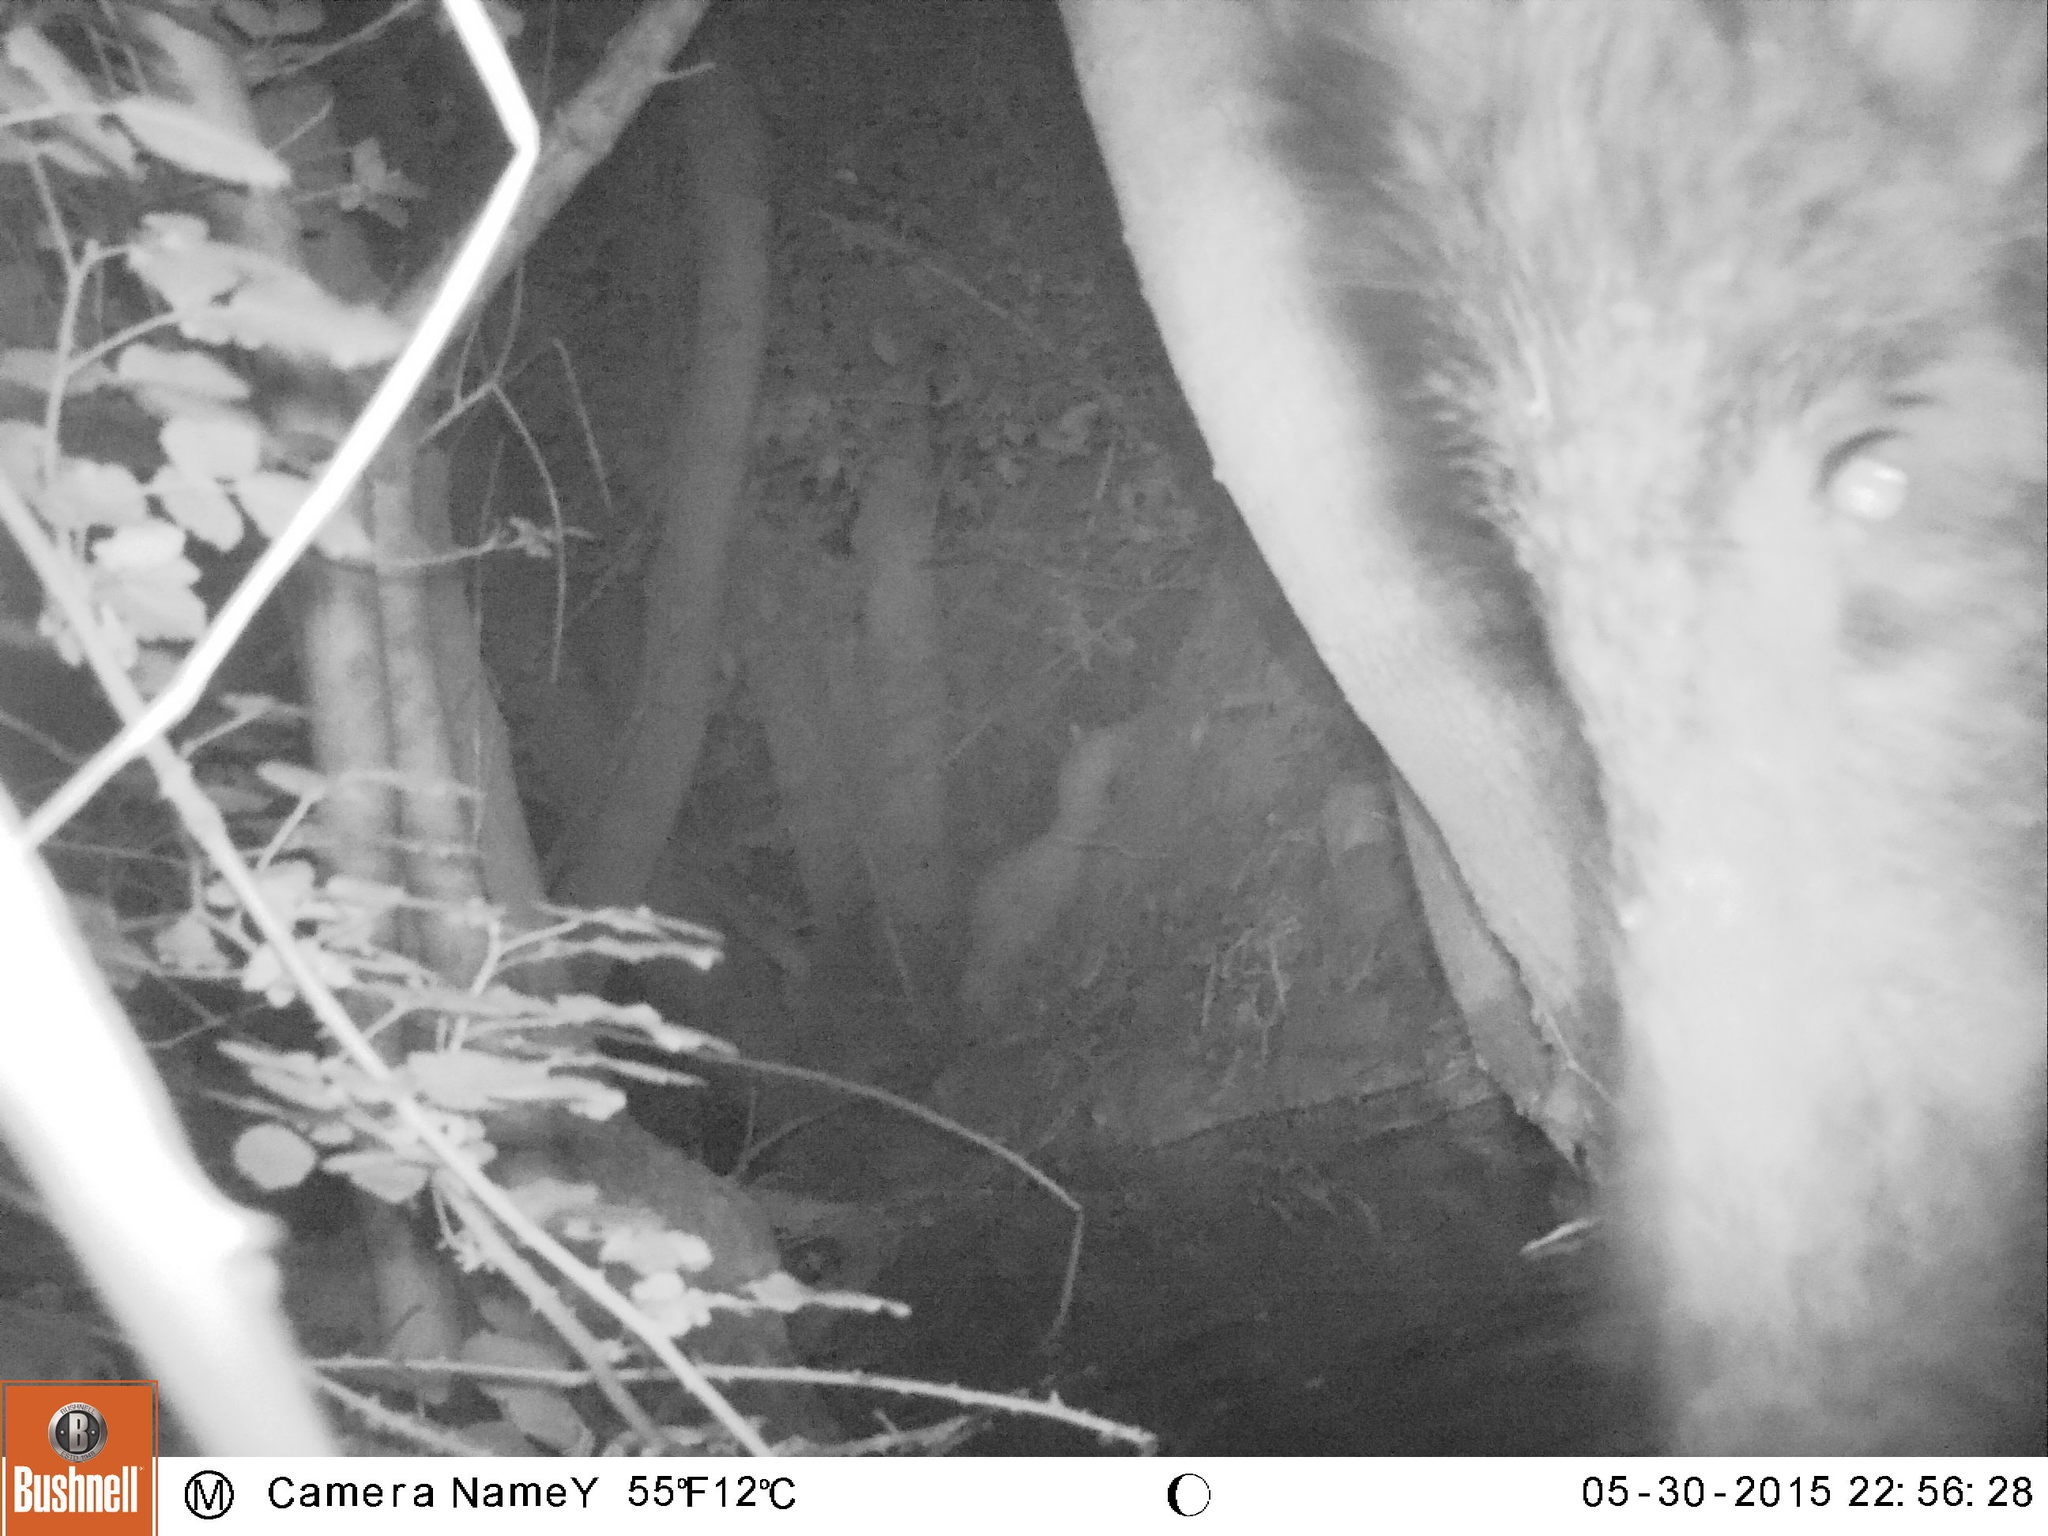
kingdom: Animalia
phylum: Chordata
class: Mammalia
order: Artiodactyla
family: Suidae
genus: Sus
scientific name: Sus scrofa
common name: Wild boar
